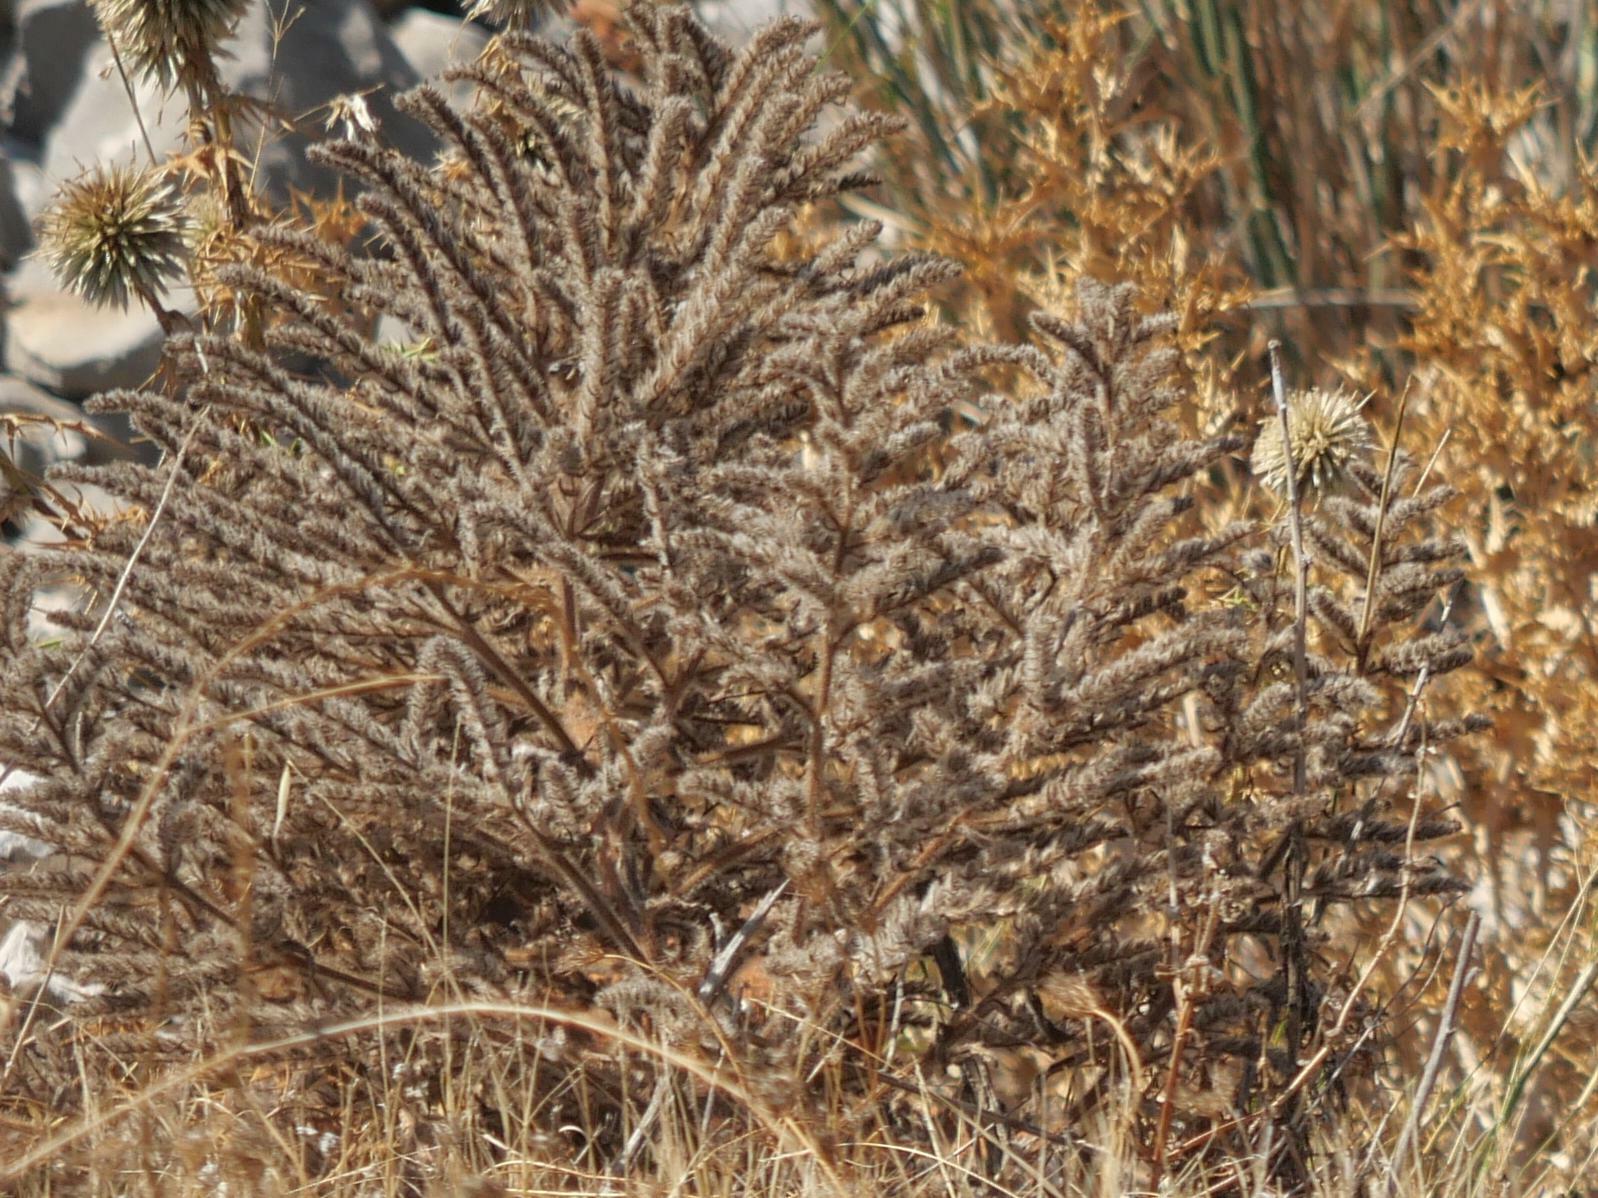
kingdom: Plantae
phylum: Tracheophyta
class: Magnoliopsida
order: Boraginales
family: Boraginaceae
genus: Echium
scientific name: Echium italicum
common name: Italian viper's bugloss
